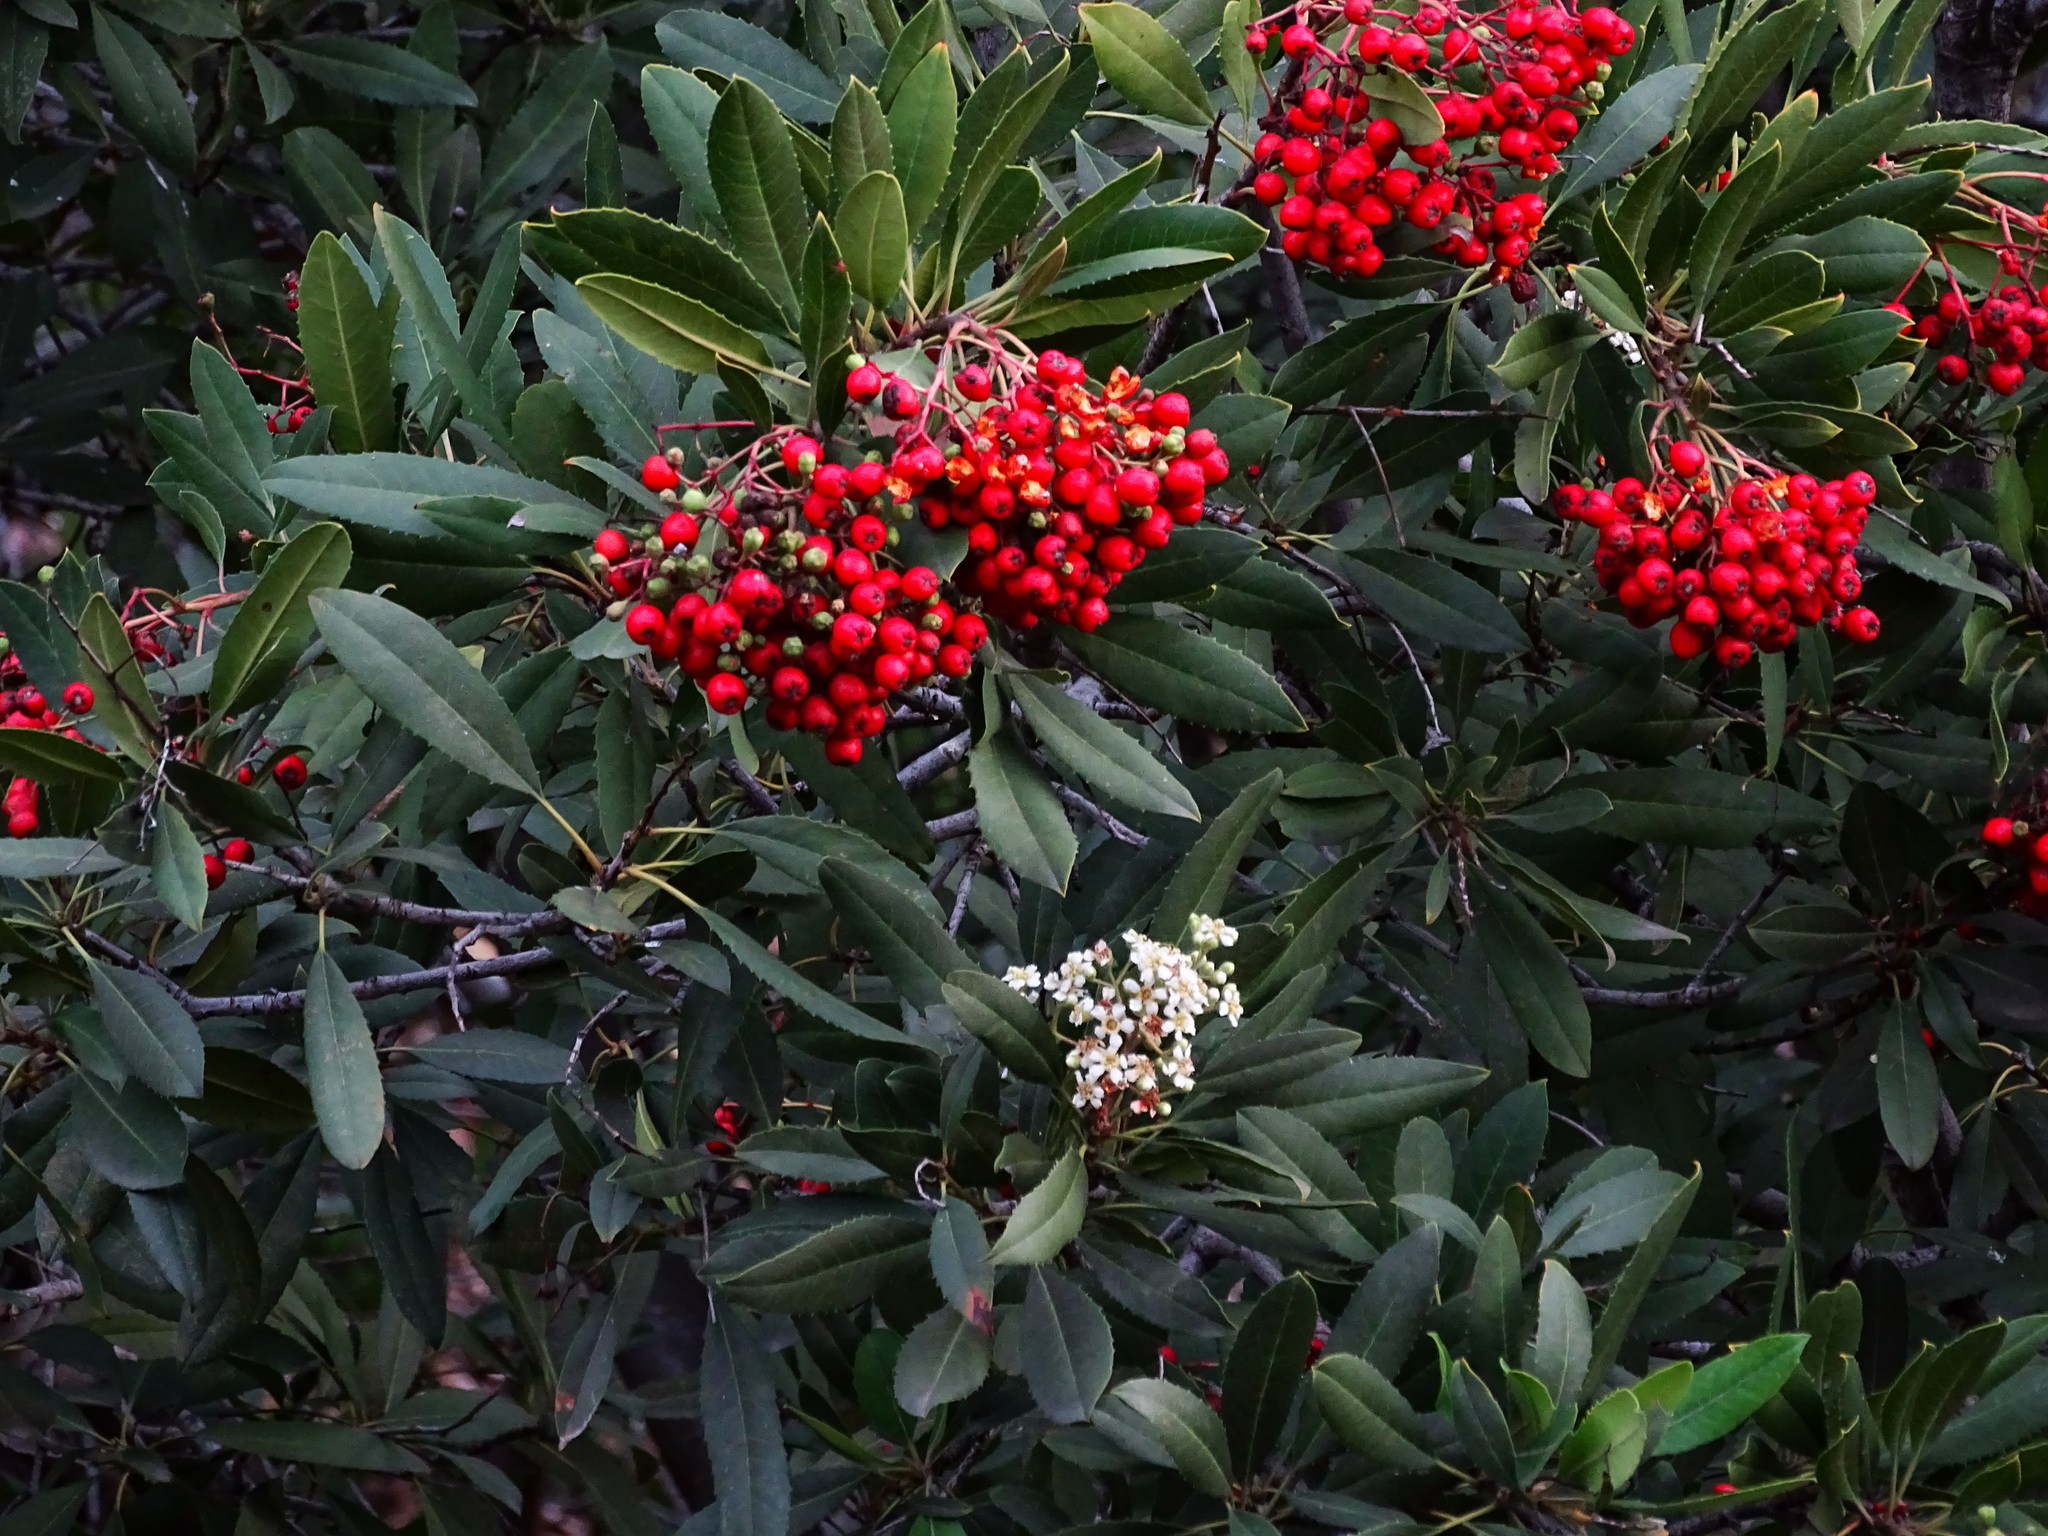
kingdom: Plantae
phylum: Tracheophyta
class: Magnoliopsida
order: Rosales
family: Rosaceae
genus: Heteromeles
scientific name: Heteromeles arbutifolia
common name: California-holly
